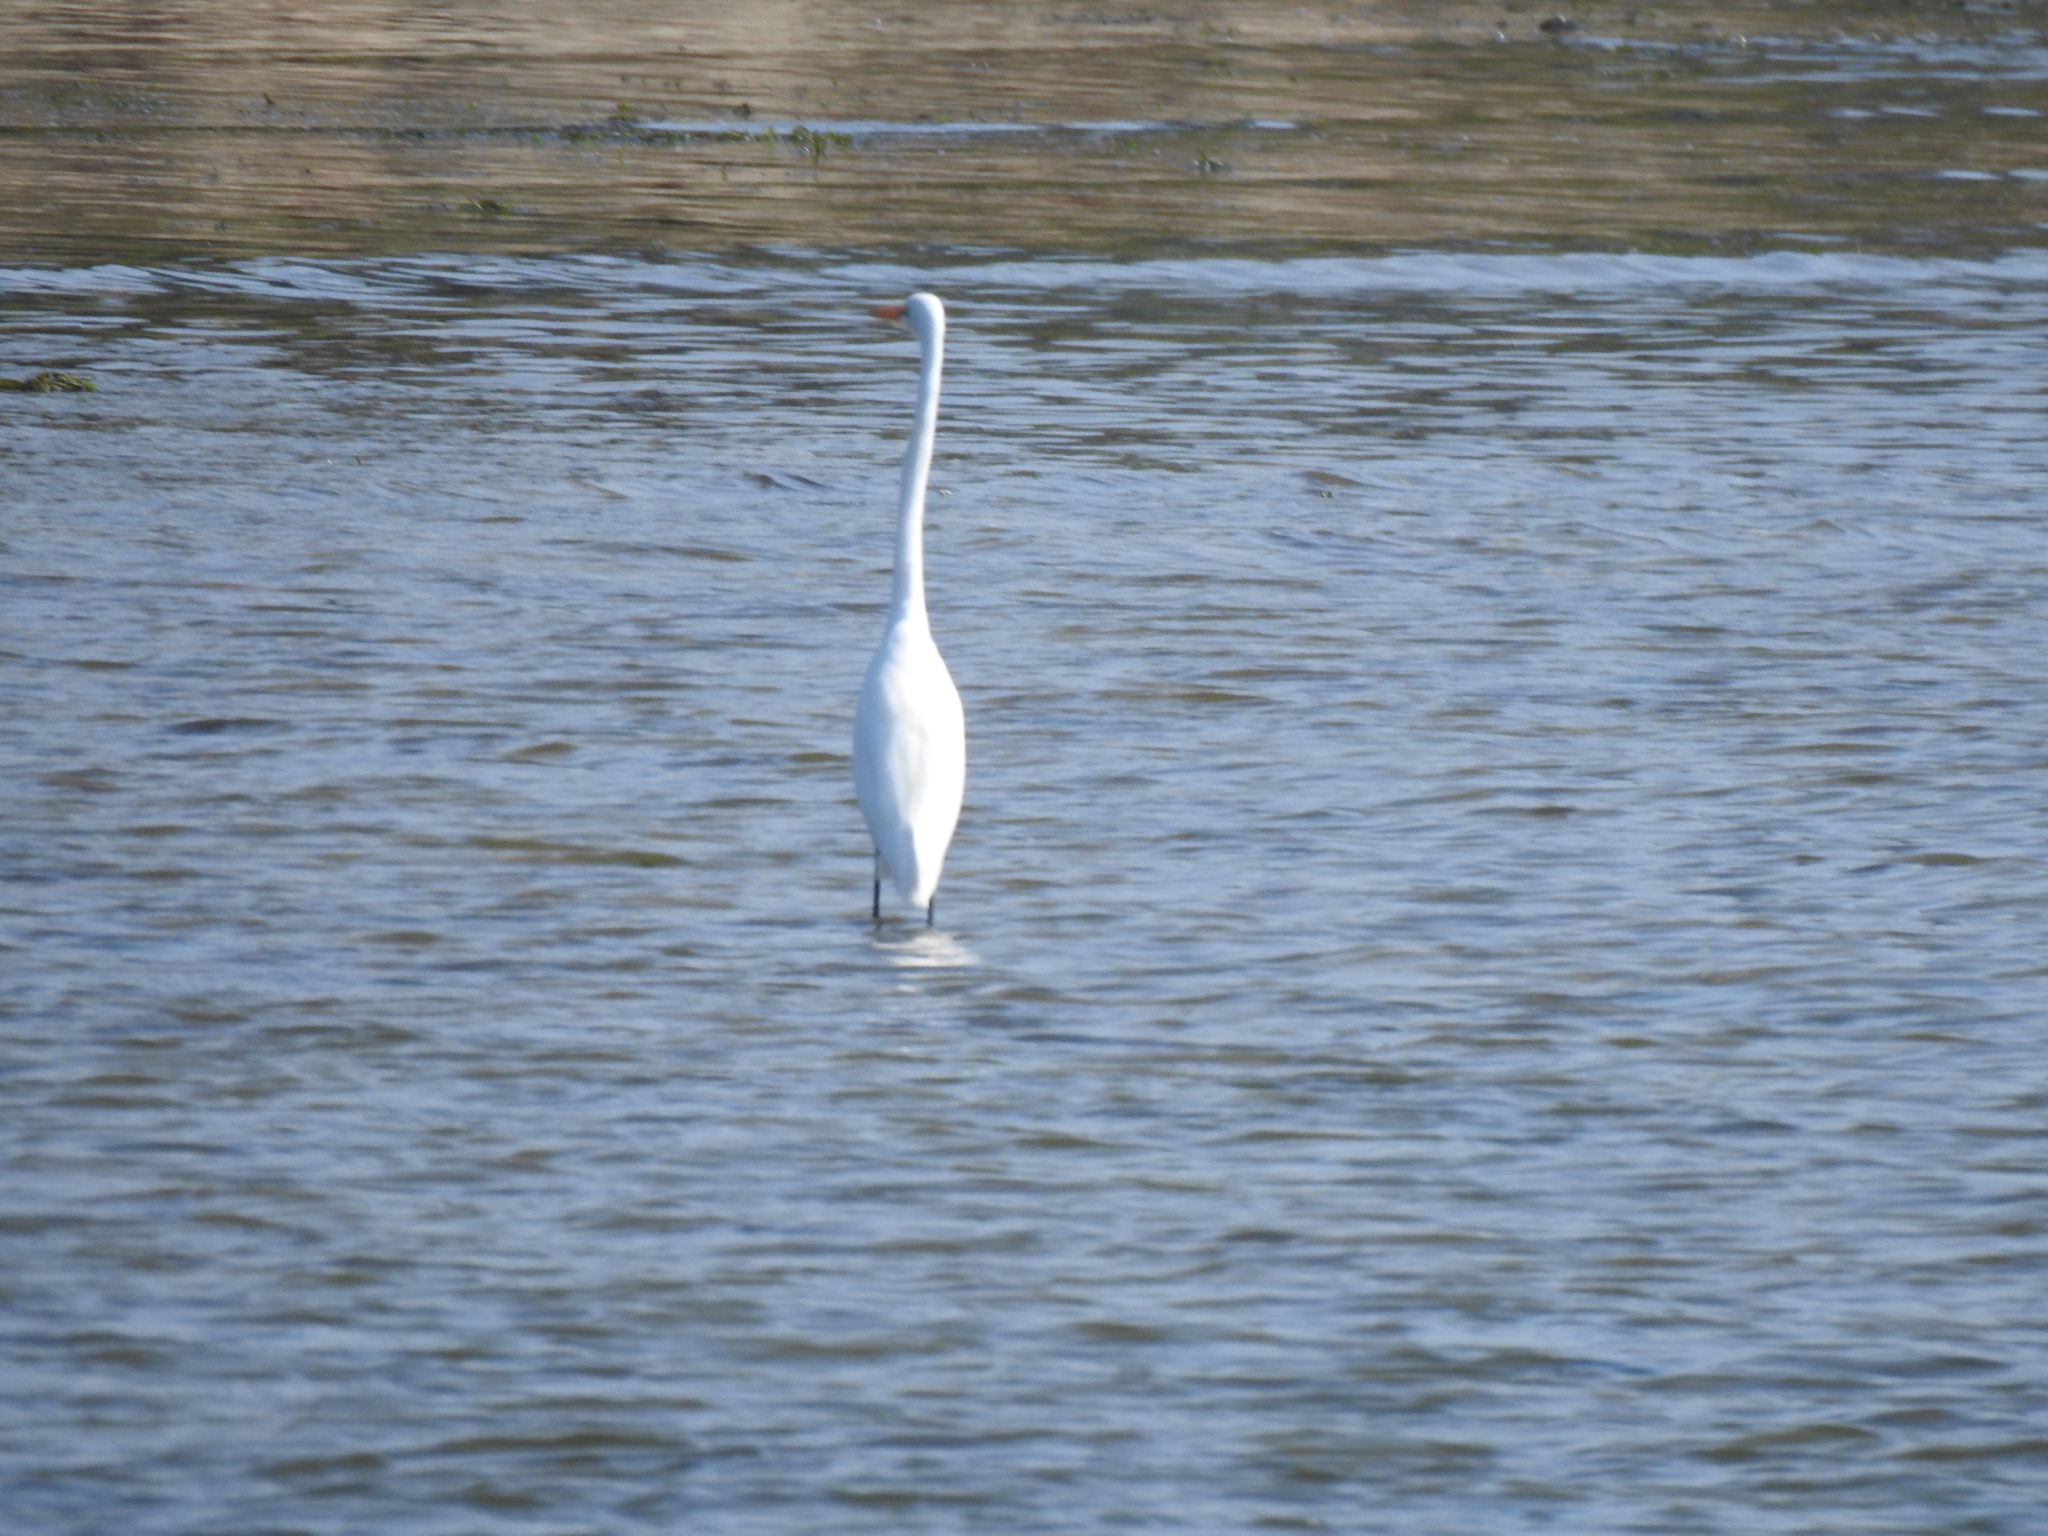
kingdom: Animalia
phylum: Chordata
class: Aves
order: Pelecaniformes
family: Ardeidae
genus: Ardea
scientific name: Ardea alba
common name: Great egret
